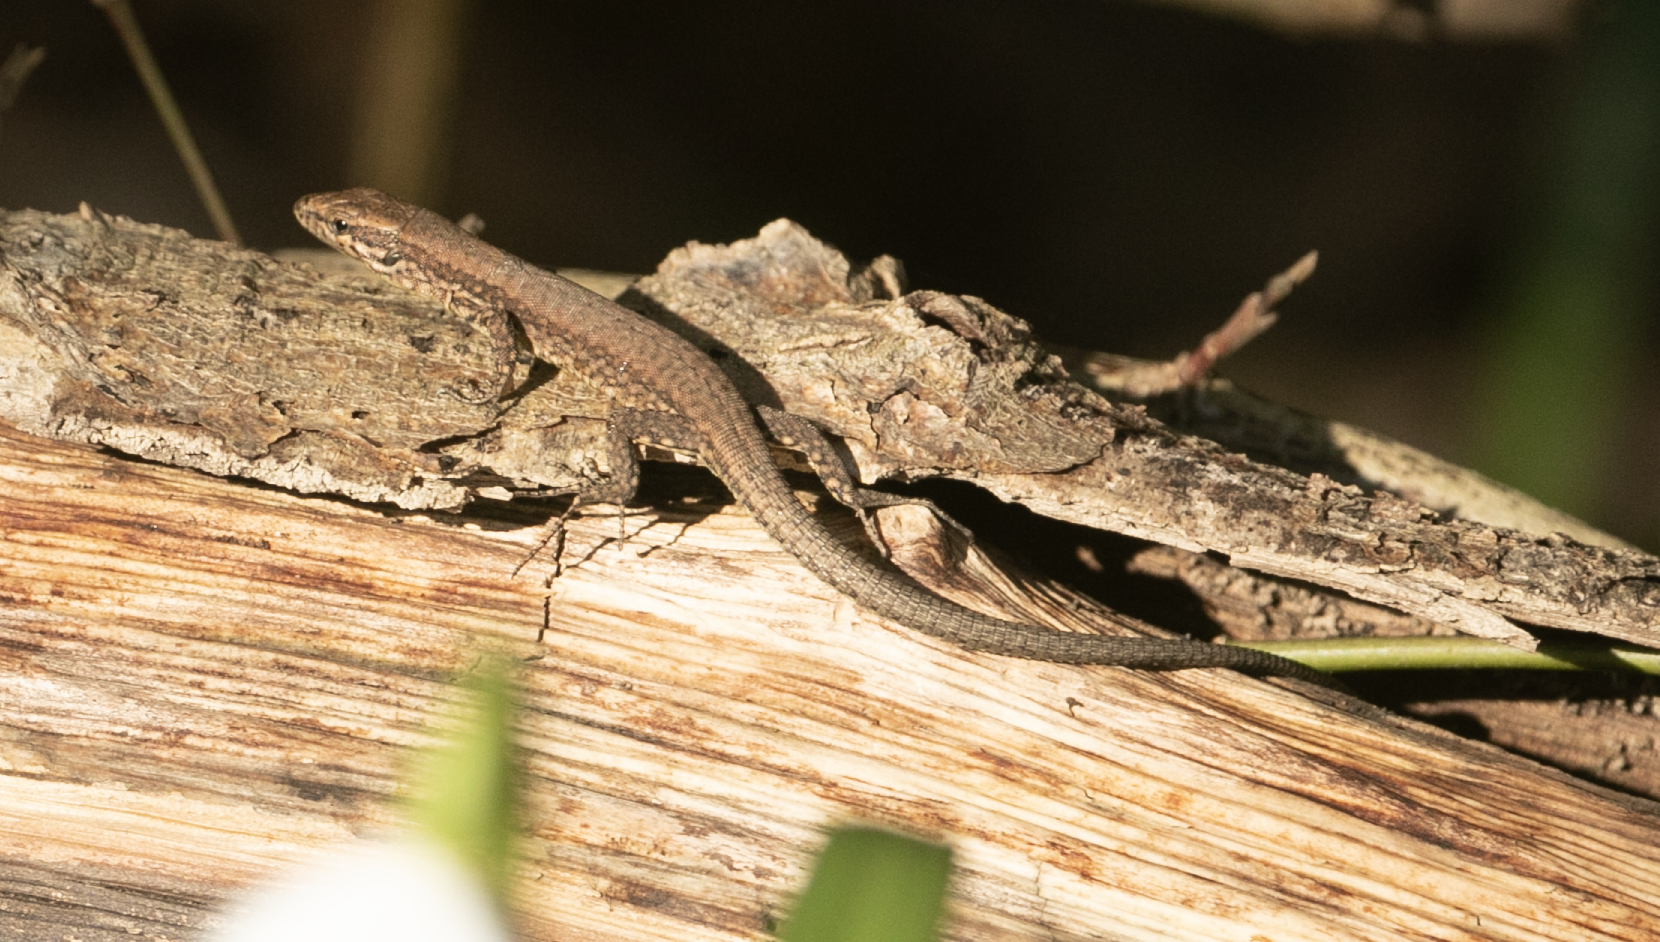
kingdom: Animalia
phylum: Chordata
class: Squamata
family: Lacertidae
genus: Podarcis
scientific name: Podarcis muralis
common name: Common wall lizard
